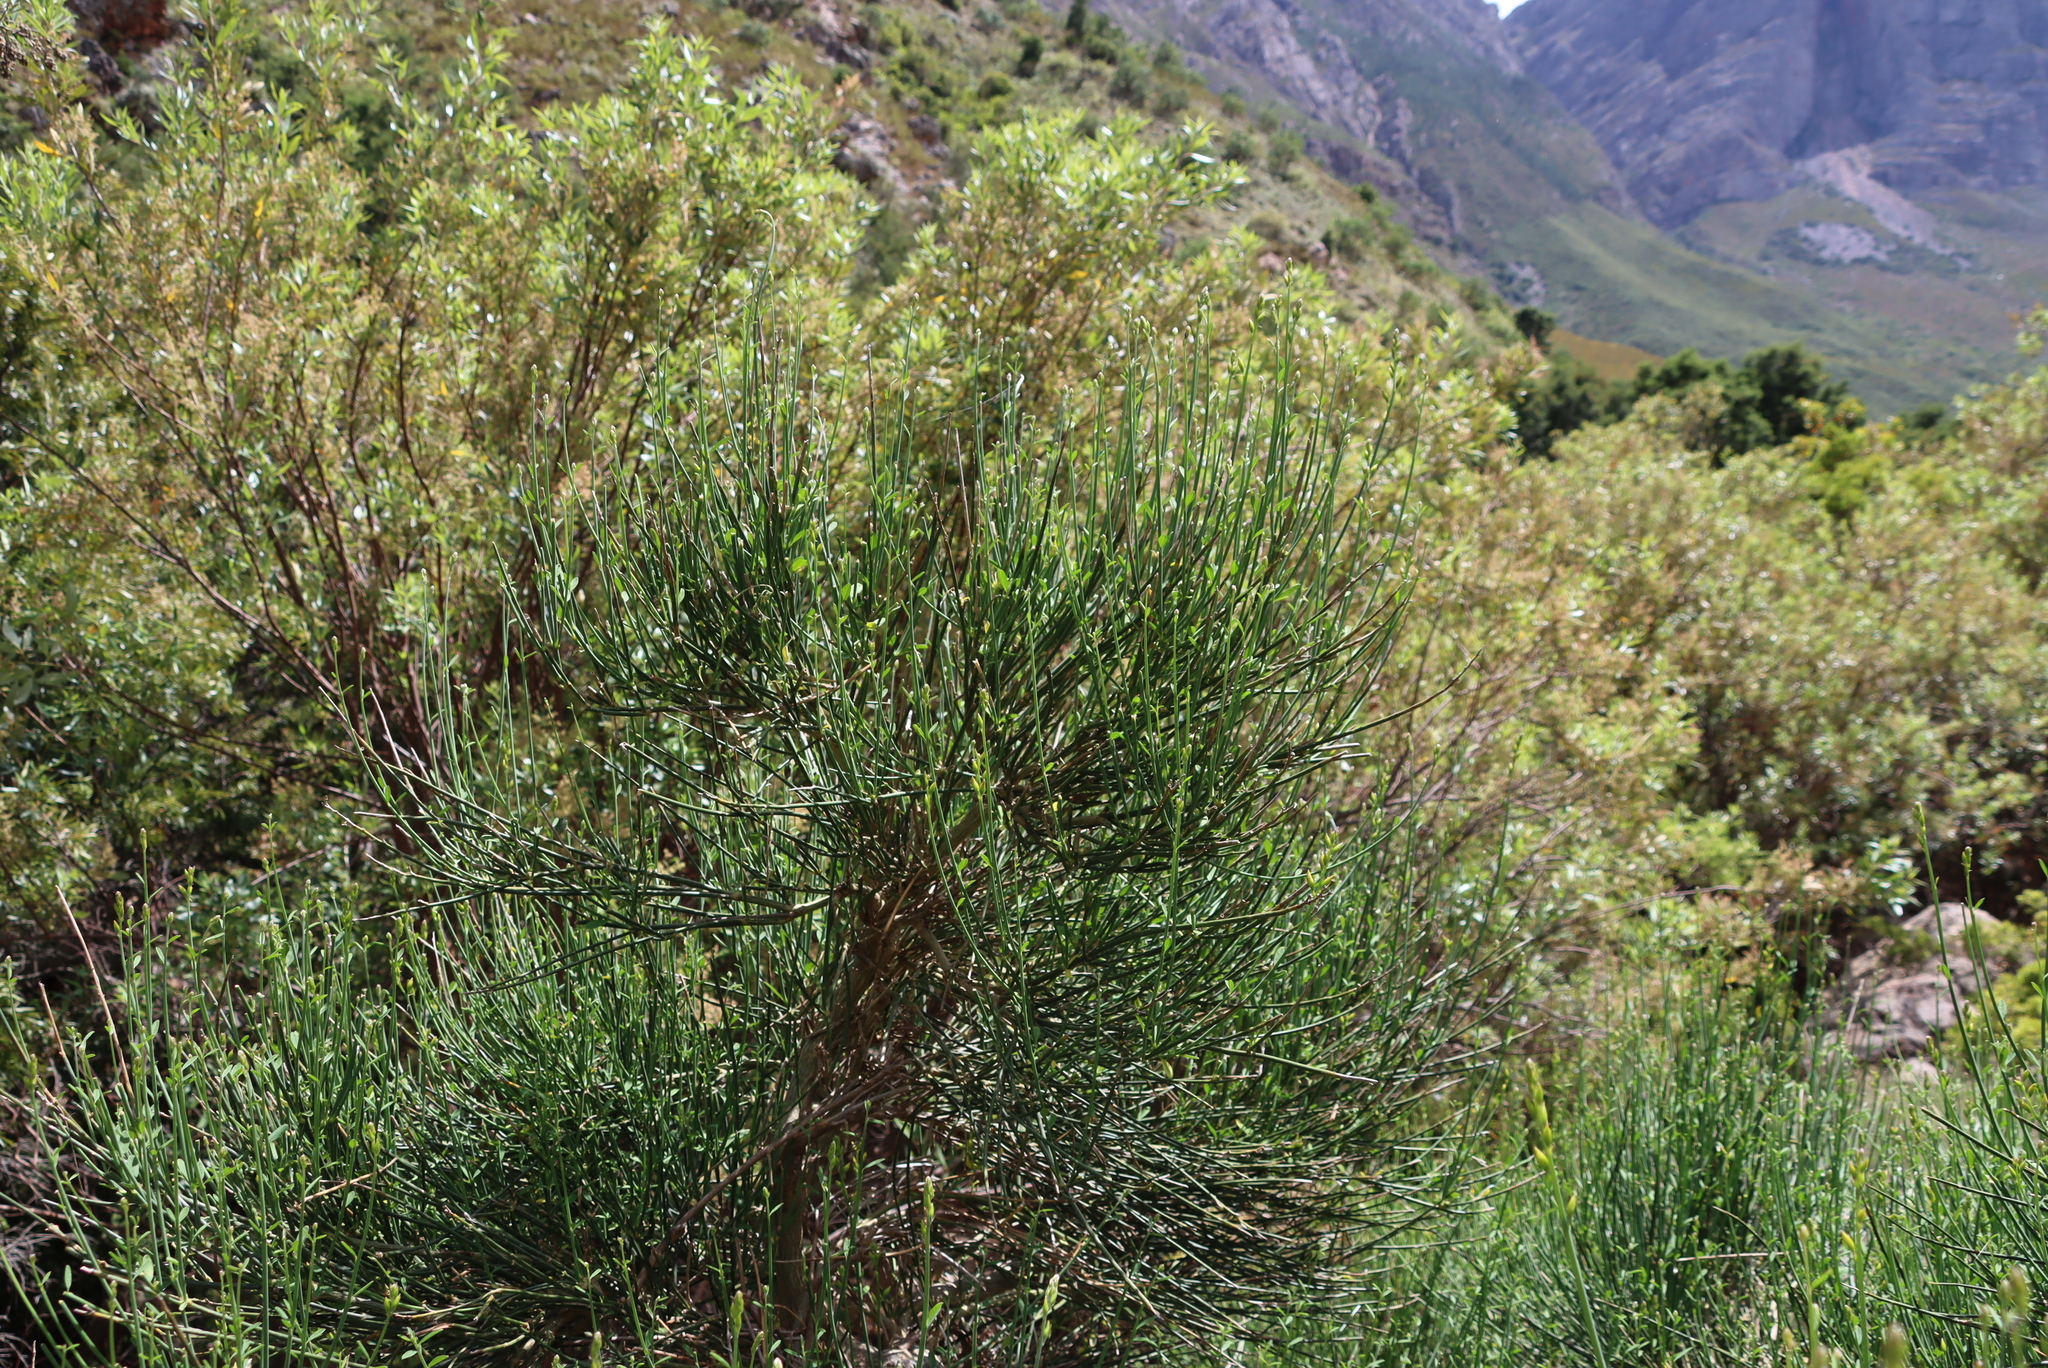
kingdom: Plantae
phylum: Tracheophyta
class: Magnoliopsida
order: Fabales
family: Fabaceae
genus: Spartium
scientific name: Spartium junceum
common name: Spanish broom
